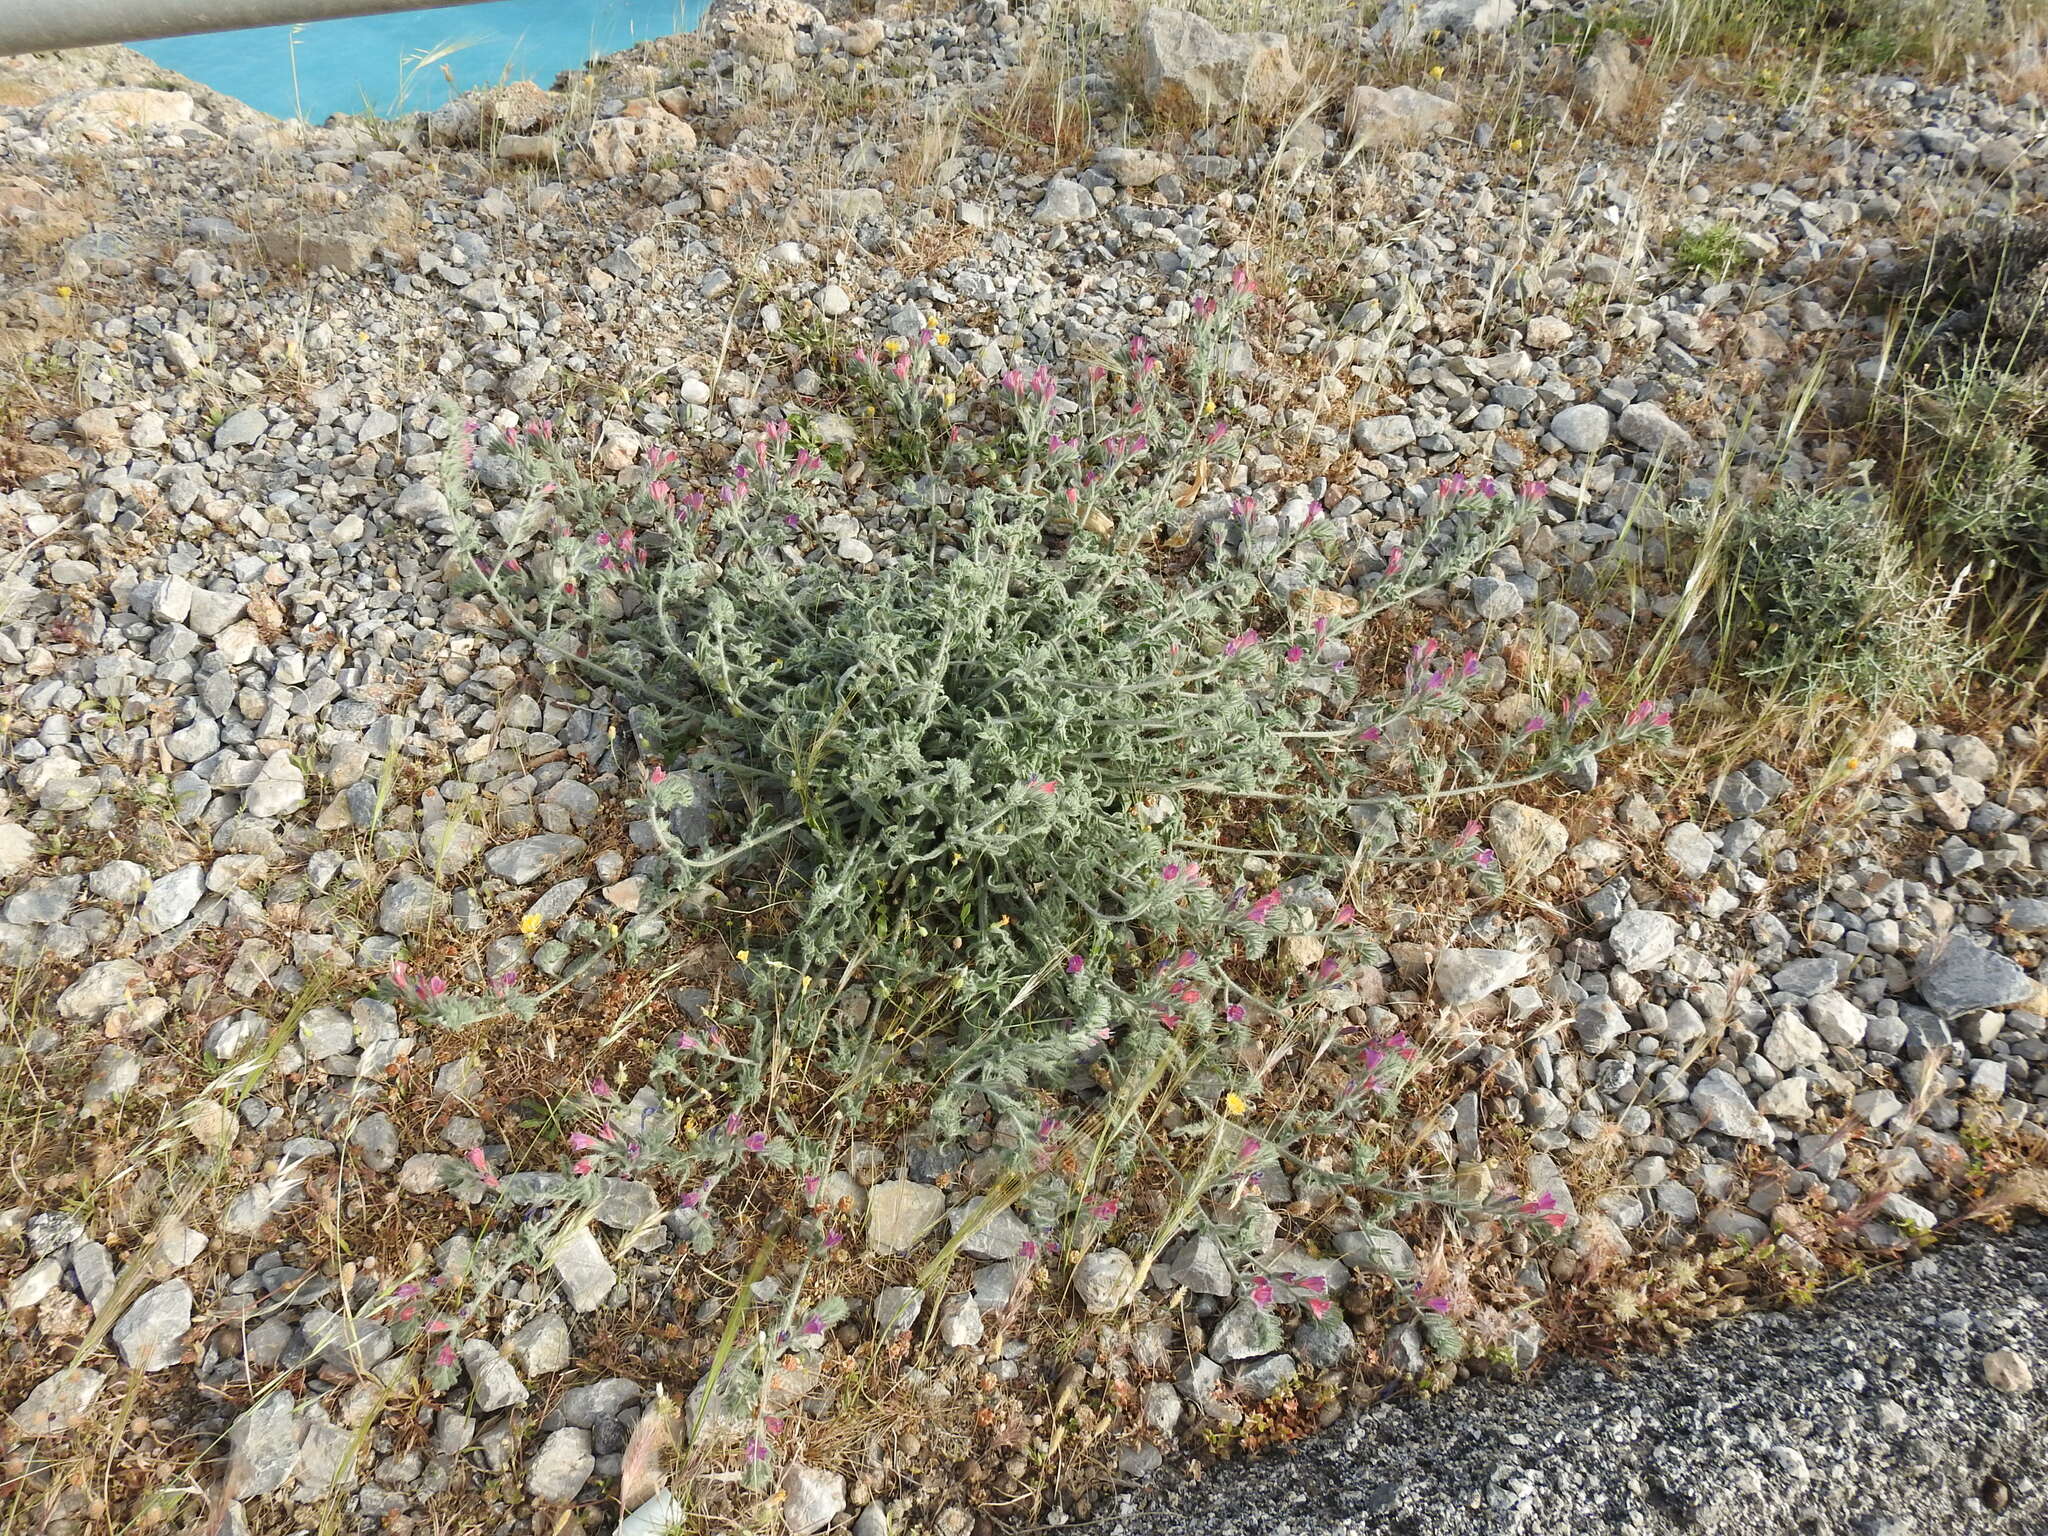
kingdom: Plantae
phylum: Tracheophyta
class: Magnoliopsida
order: Boraginales
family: Boraginaceae
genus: Echium
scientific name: Echium angustifolium
